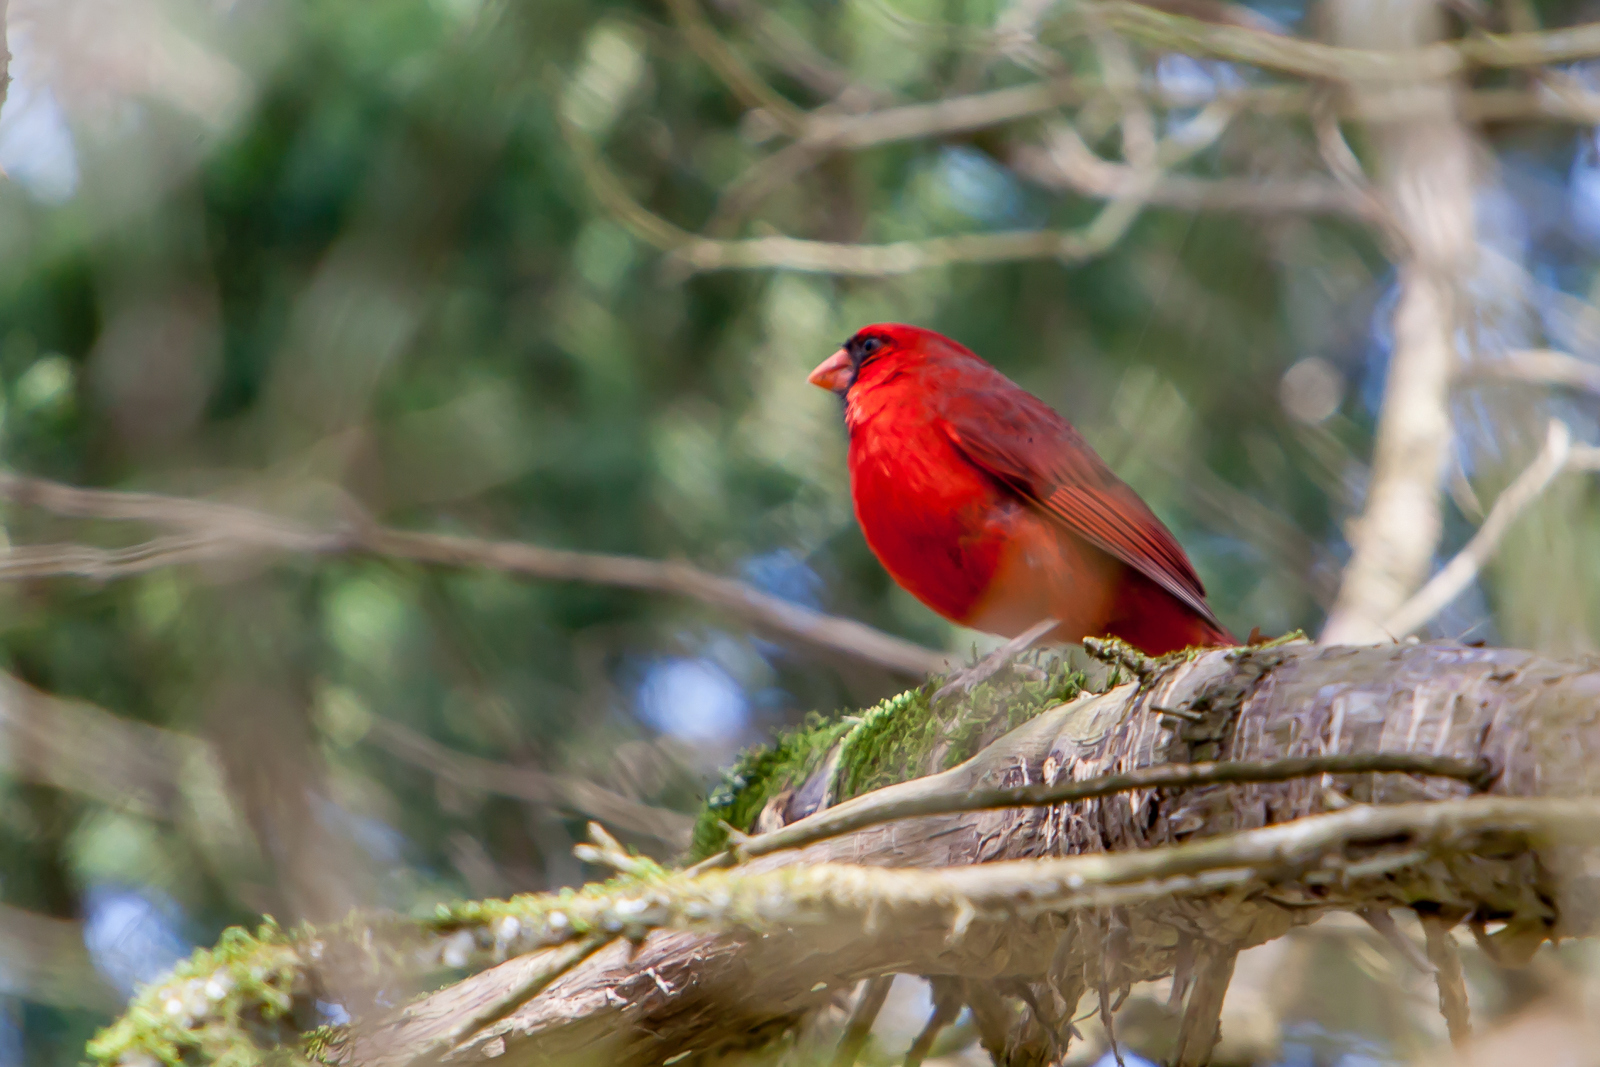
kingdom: Animalia
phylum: Chordata
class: Aves
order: Passeriformes
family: Cardinalidae
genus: Cardinalis
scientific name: Cardinalis cardinalis
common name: Northern cardinal
